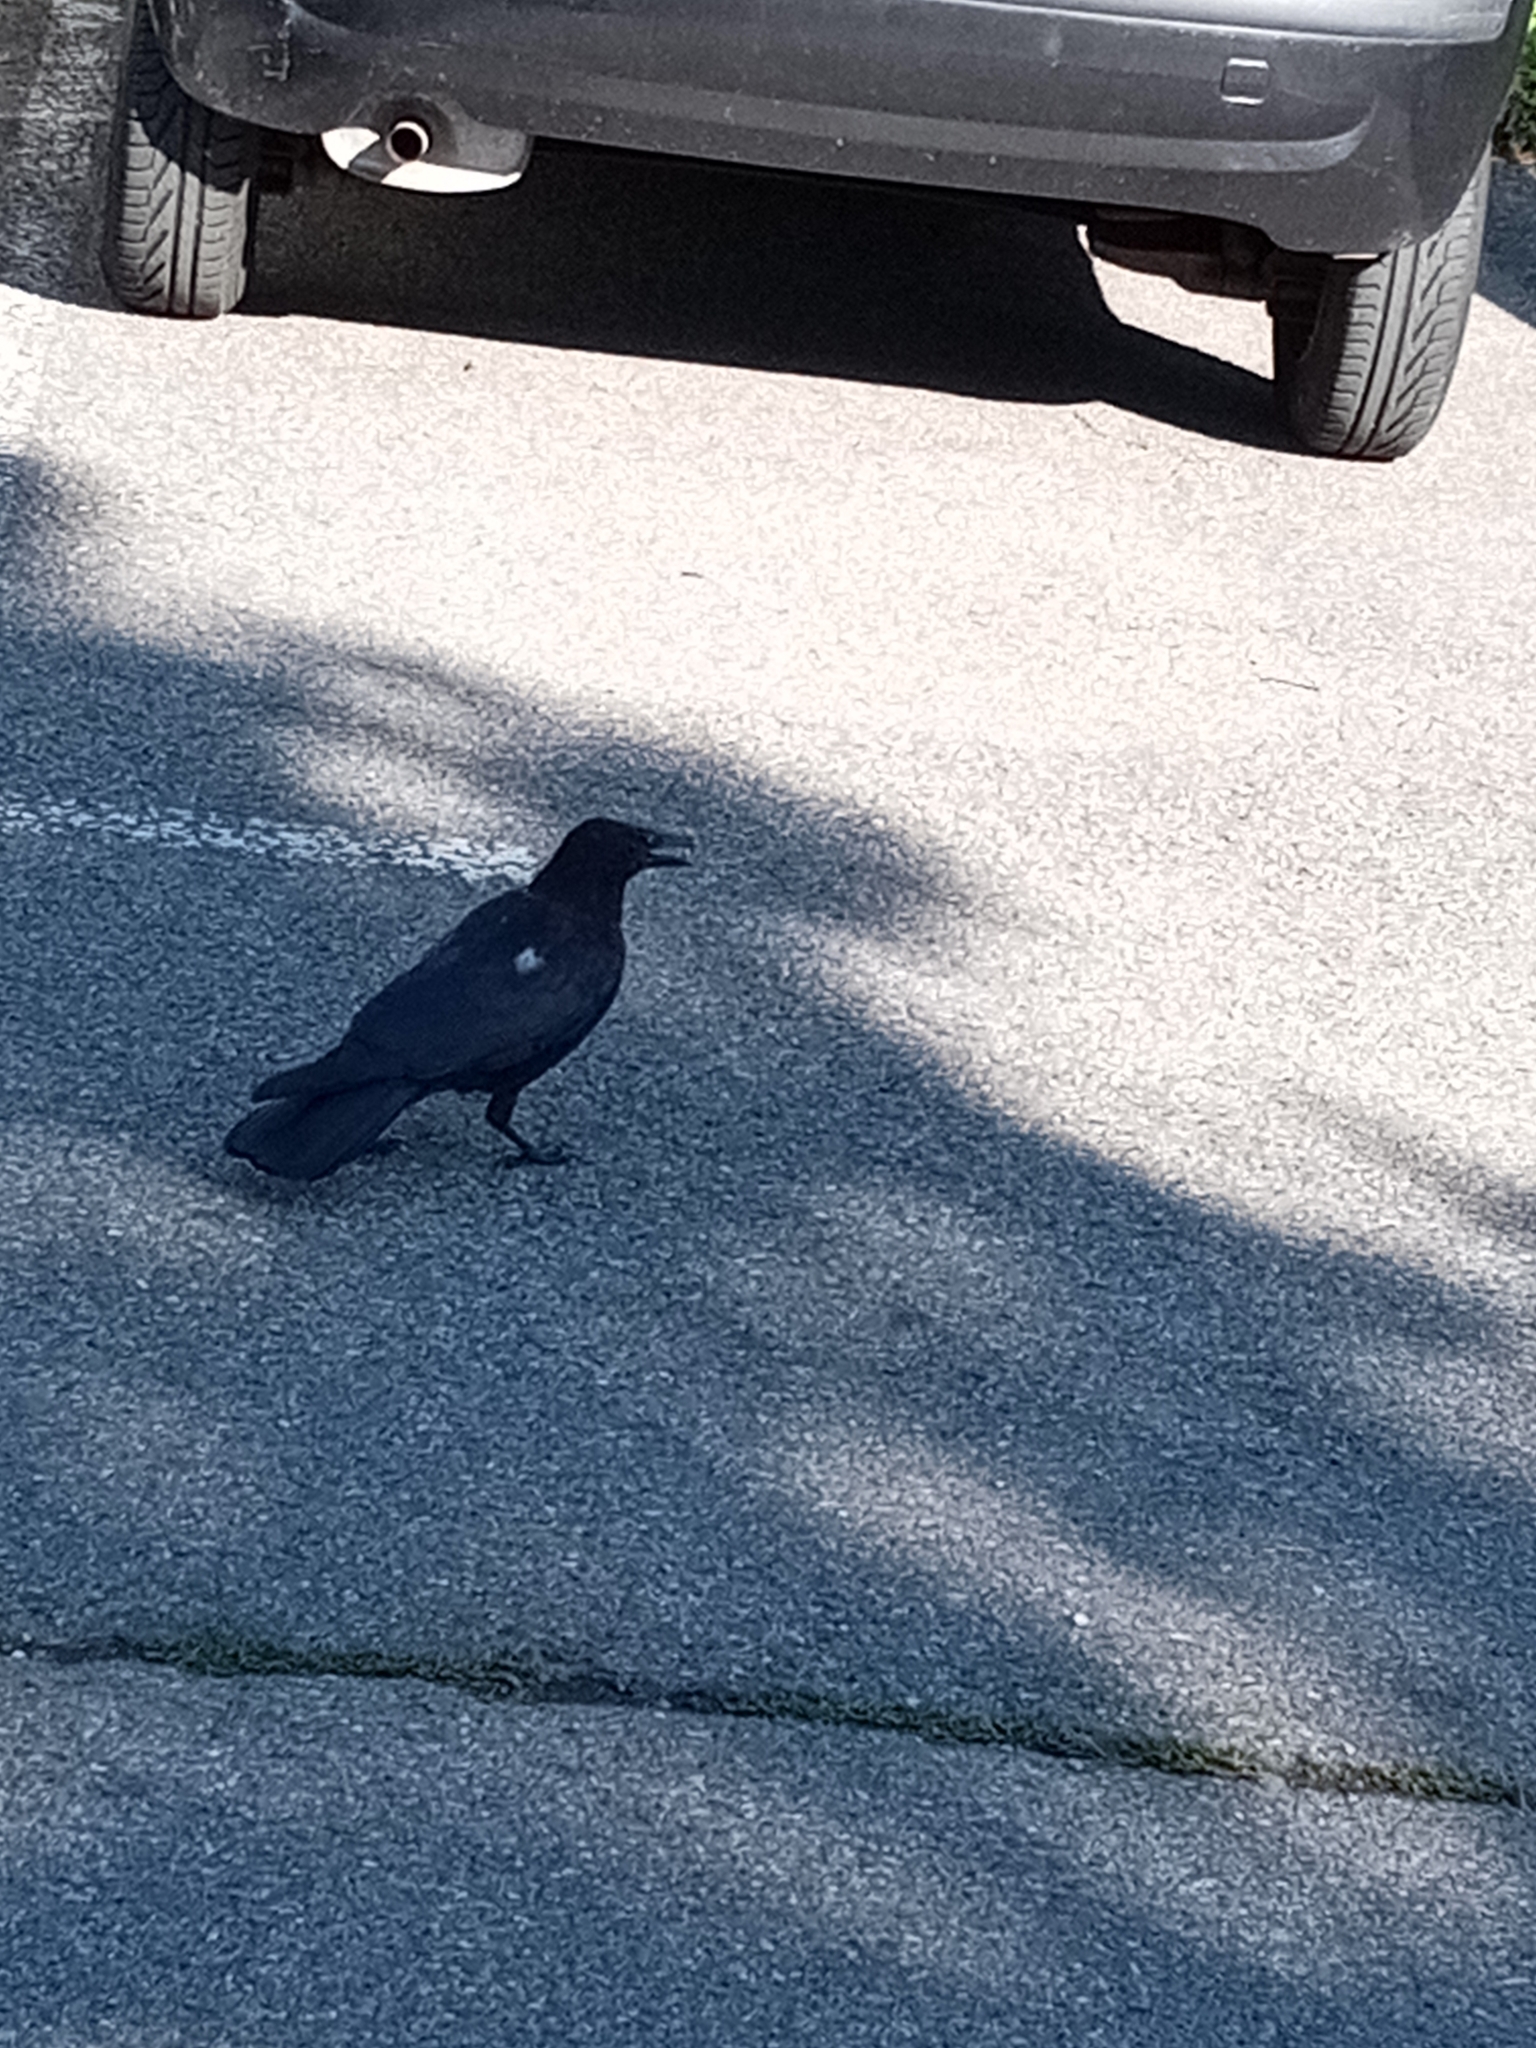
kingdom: Animalia
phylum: Chordata
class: Aves
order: Passeriformes
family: Corvidae
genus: Corvus
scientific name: Corvus corone
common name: Carrion crow
